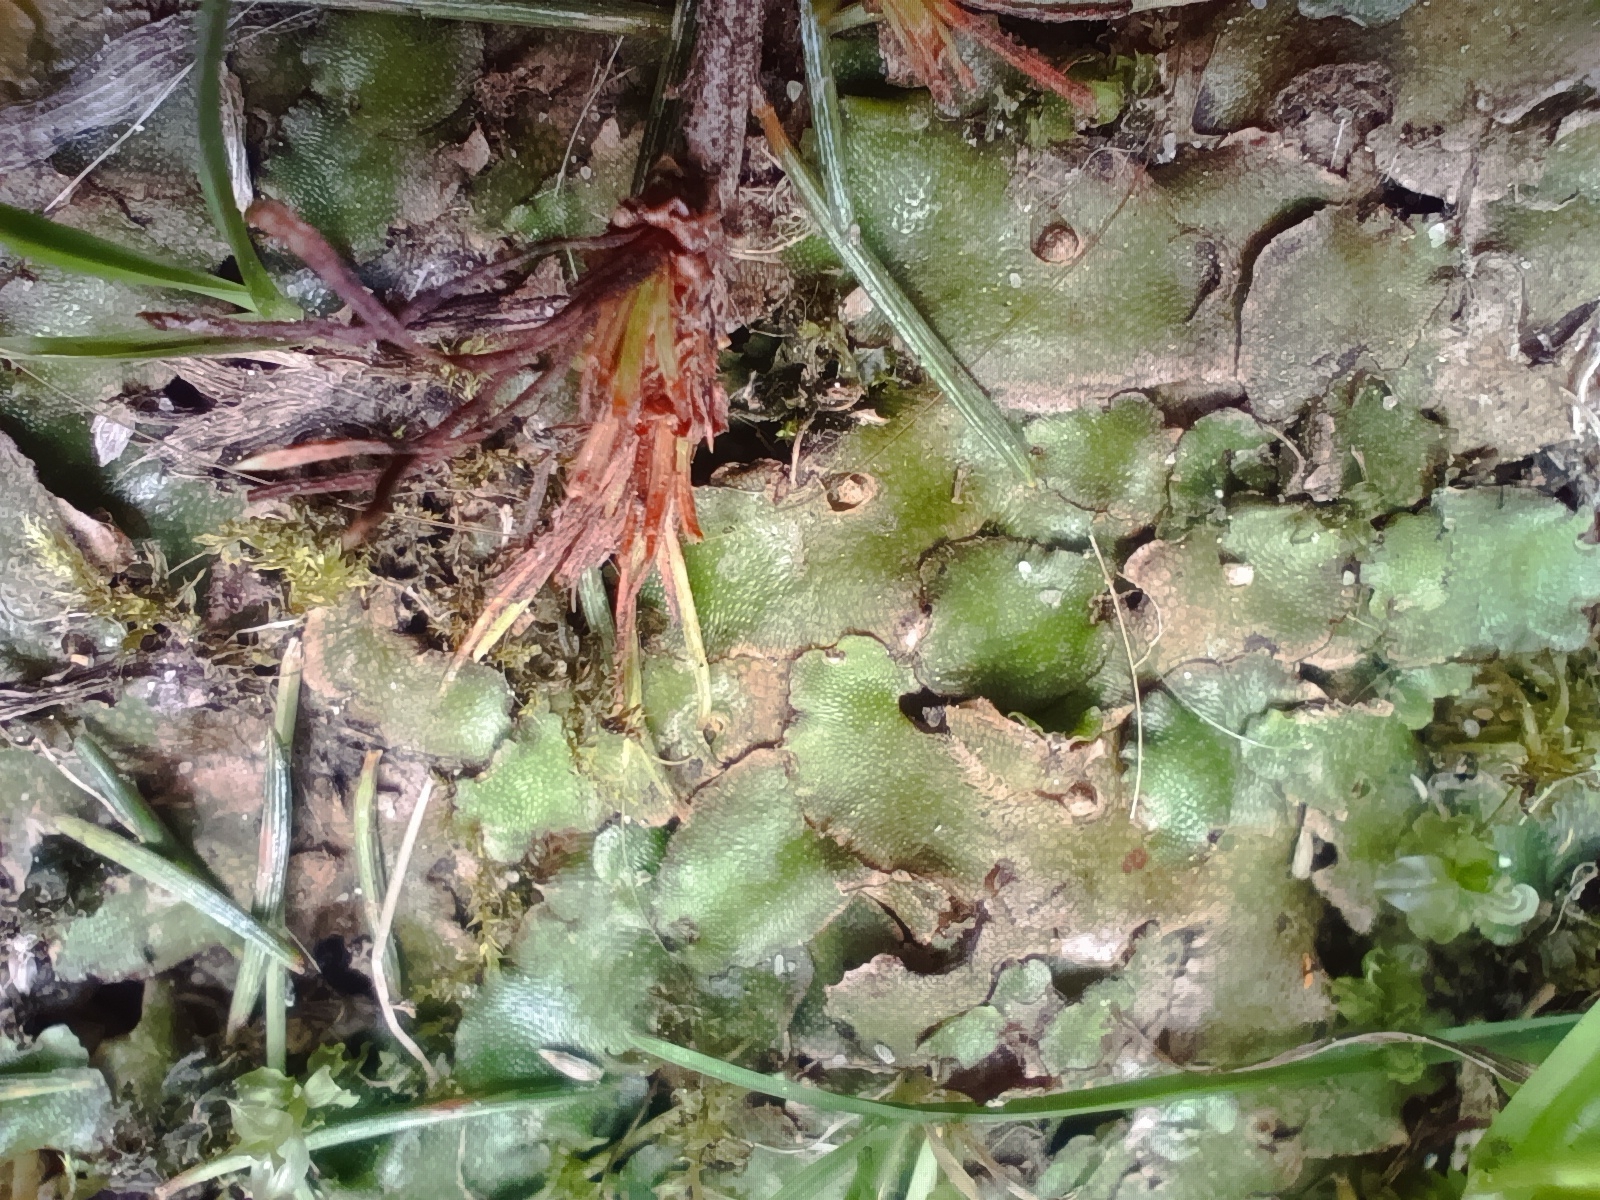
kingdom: Plantae
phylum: Marchantiophyta
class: Marchantiopsida
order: Lunulariales
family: Lunulariaceae
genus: Lunularia
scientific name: Lunularia cruciata
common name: Crescent-cup liverwort
